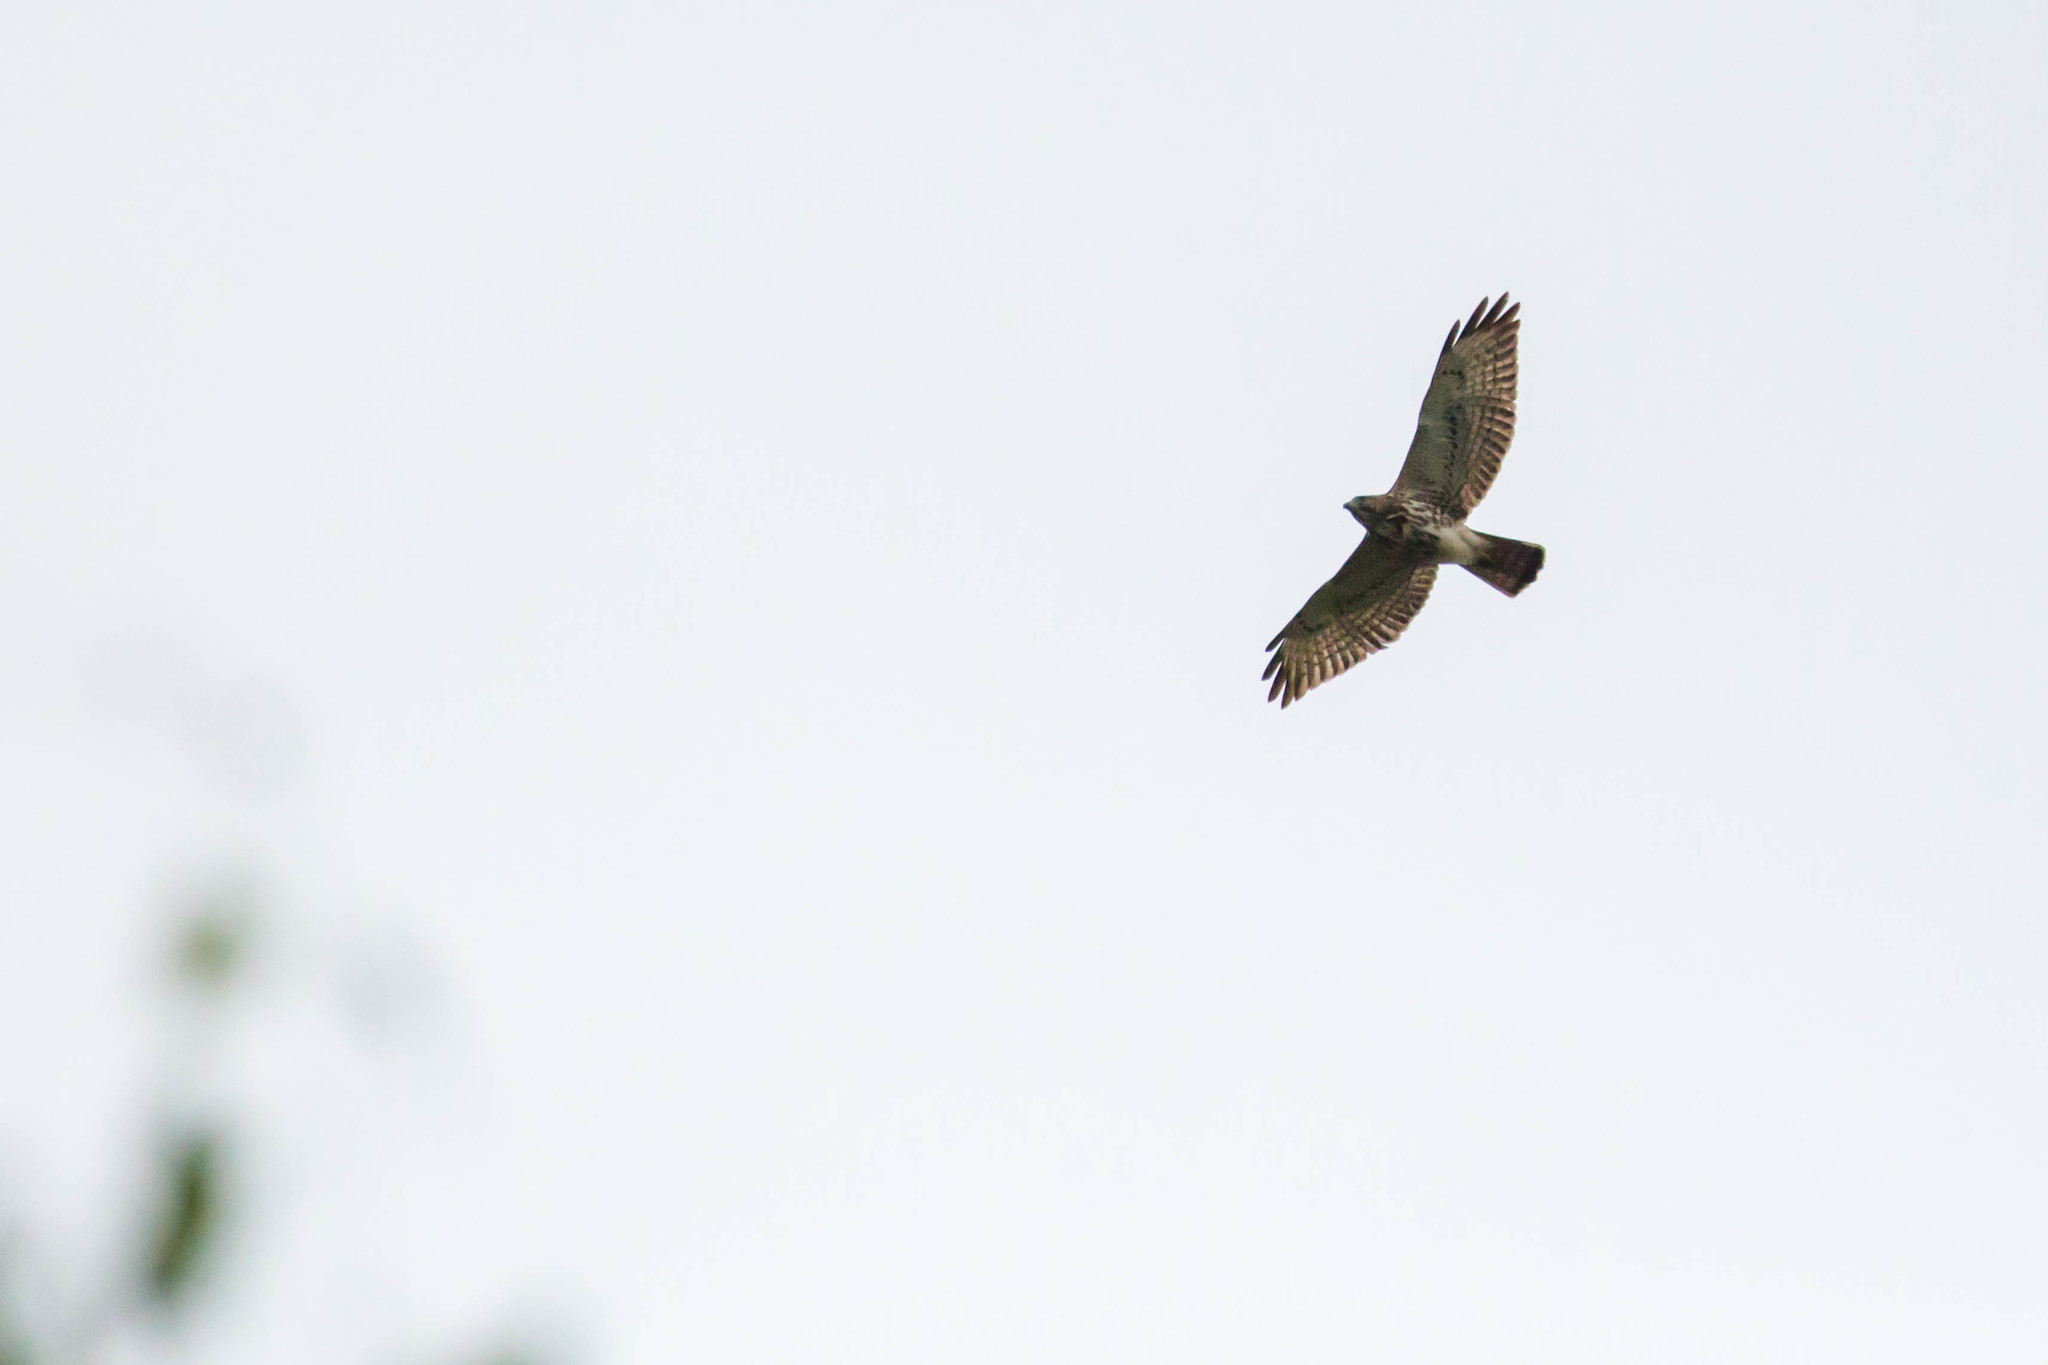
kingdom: Animalia
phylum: Chordata
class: Aves
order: Accipitriformes
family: Accipitridae
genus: Buteo
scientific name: Buteo platypterus
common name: Broad-winged hawk
